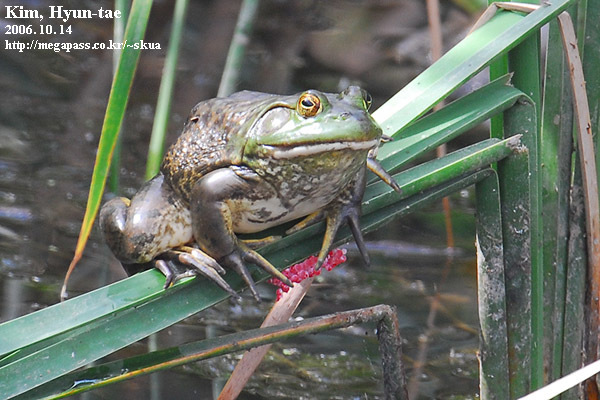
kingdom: Animalia
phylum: Chordata
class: Amphibia
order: Anura
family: Ranidae
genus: Lithobates
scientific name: Lithobates catesbeianus
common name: American bullfrog
